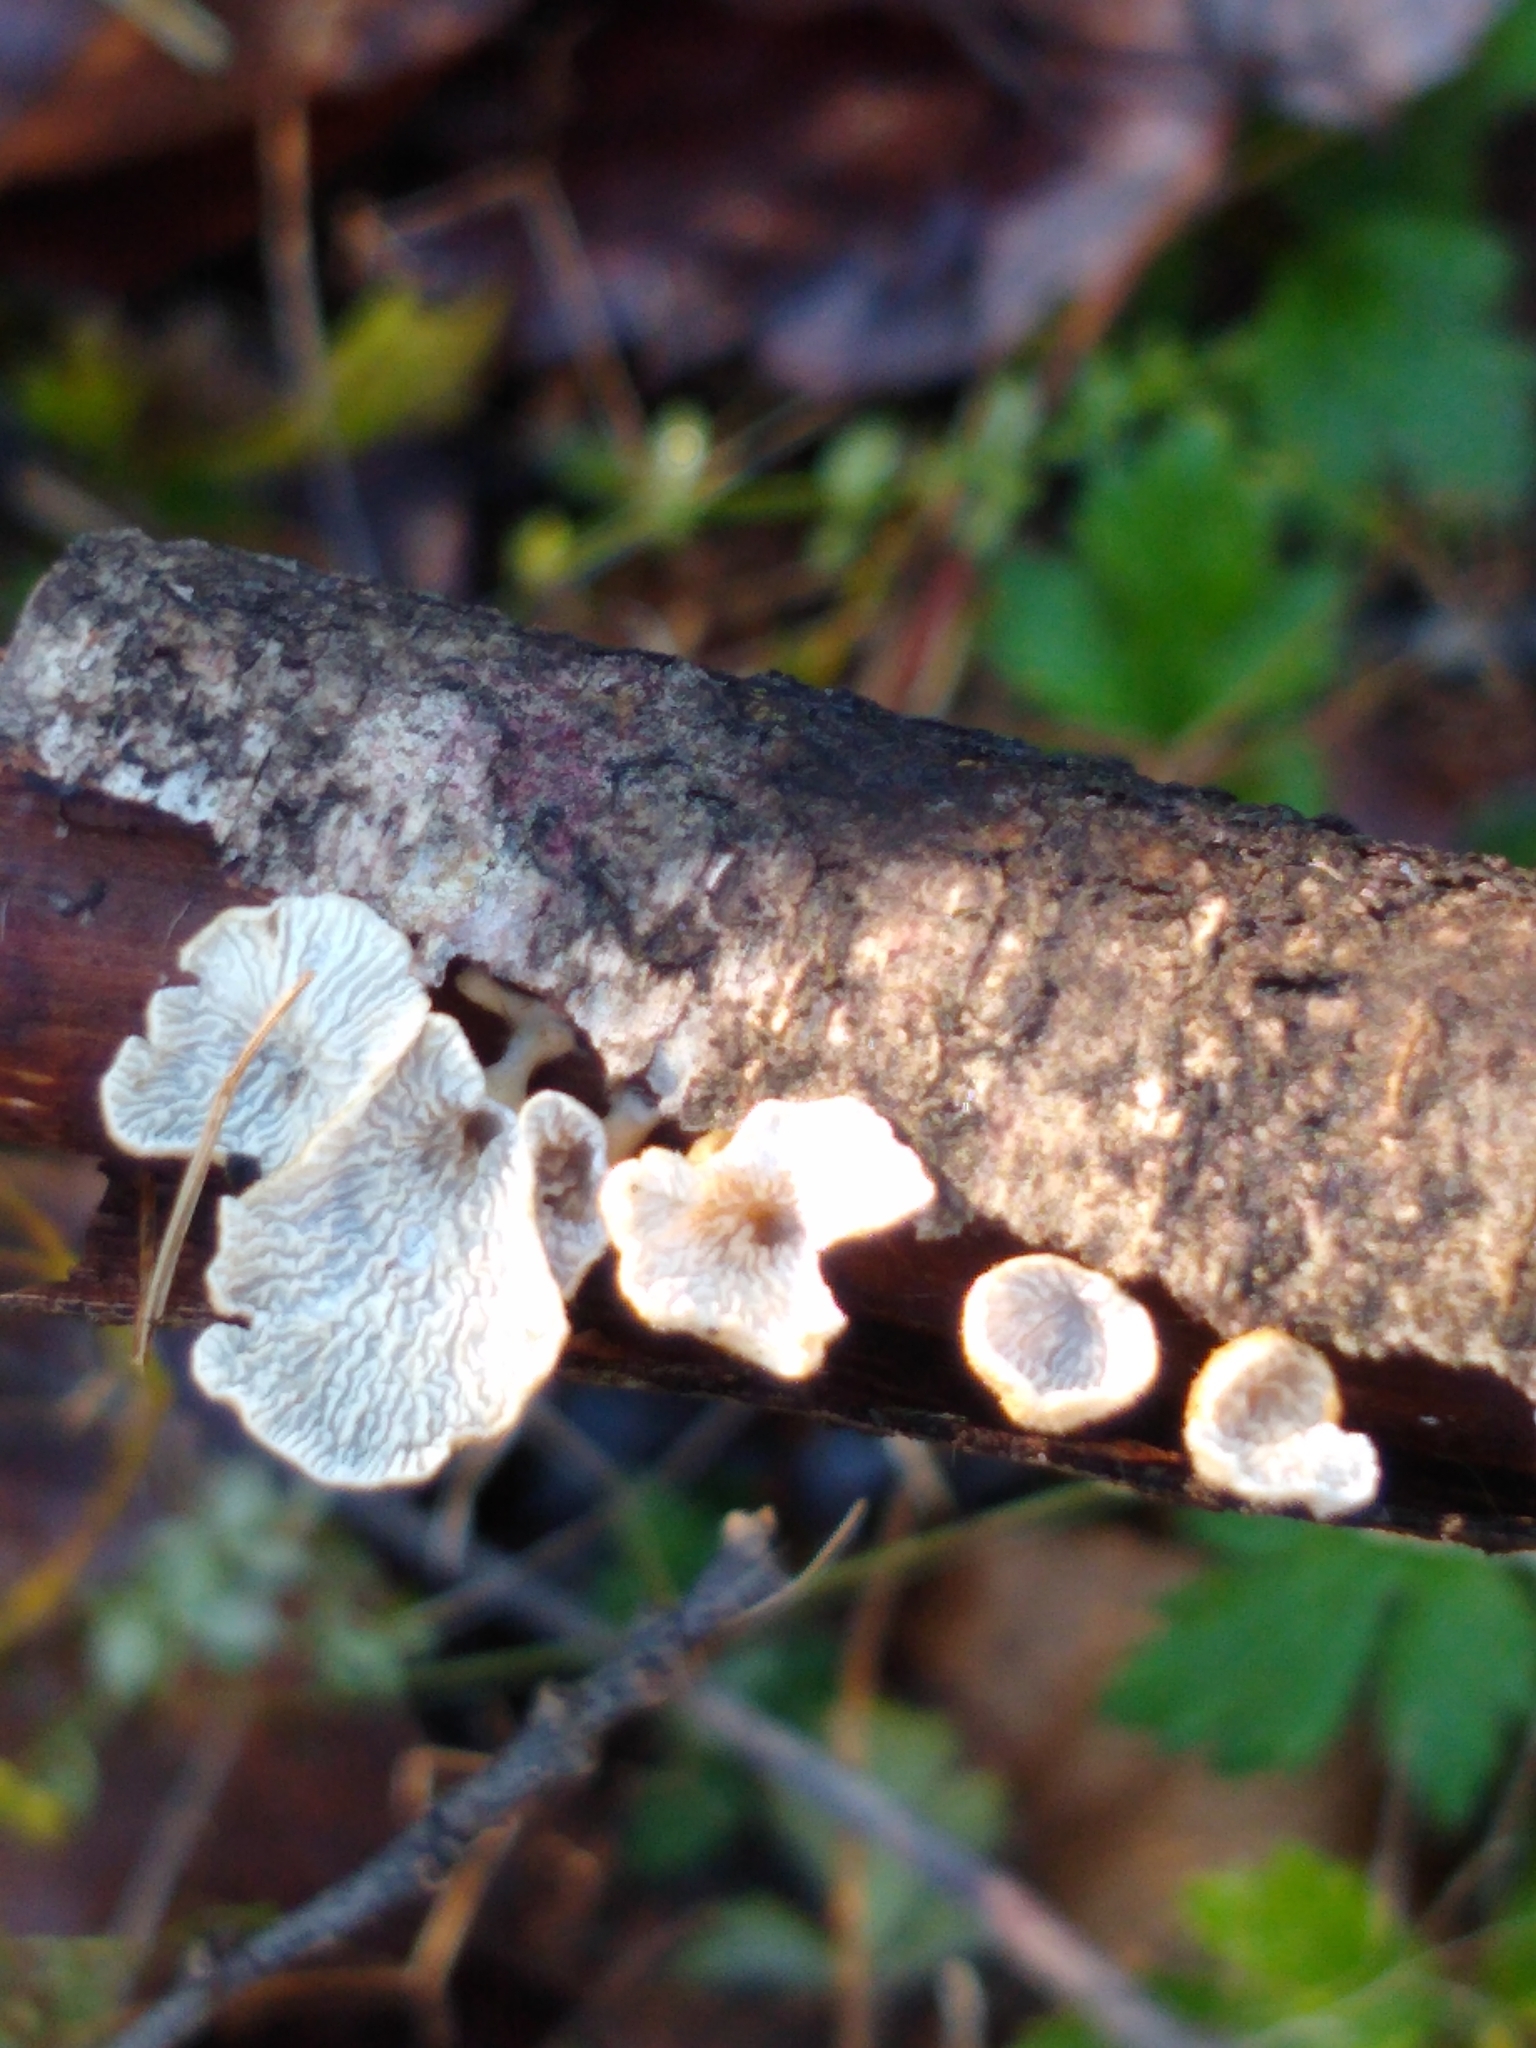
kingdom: Fungi
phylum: Basidiomycota
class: Agaricomycetes
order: Amylocorticiales
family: Amylocorticiaceae
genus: Plicaturopsis
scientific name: Plicaturopsis crispa
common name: Crimped gill
